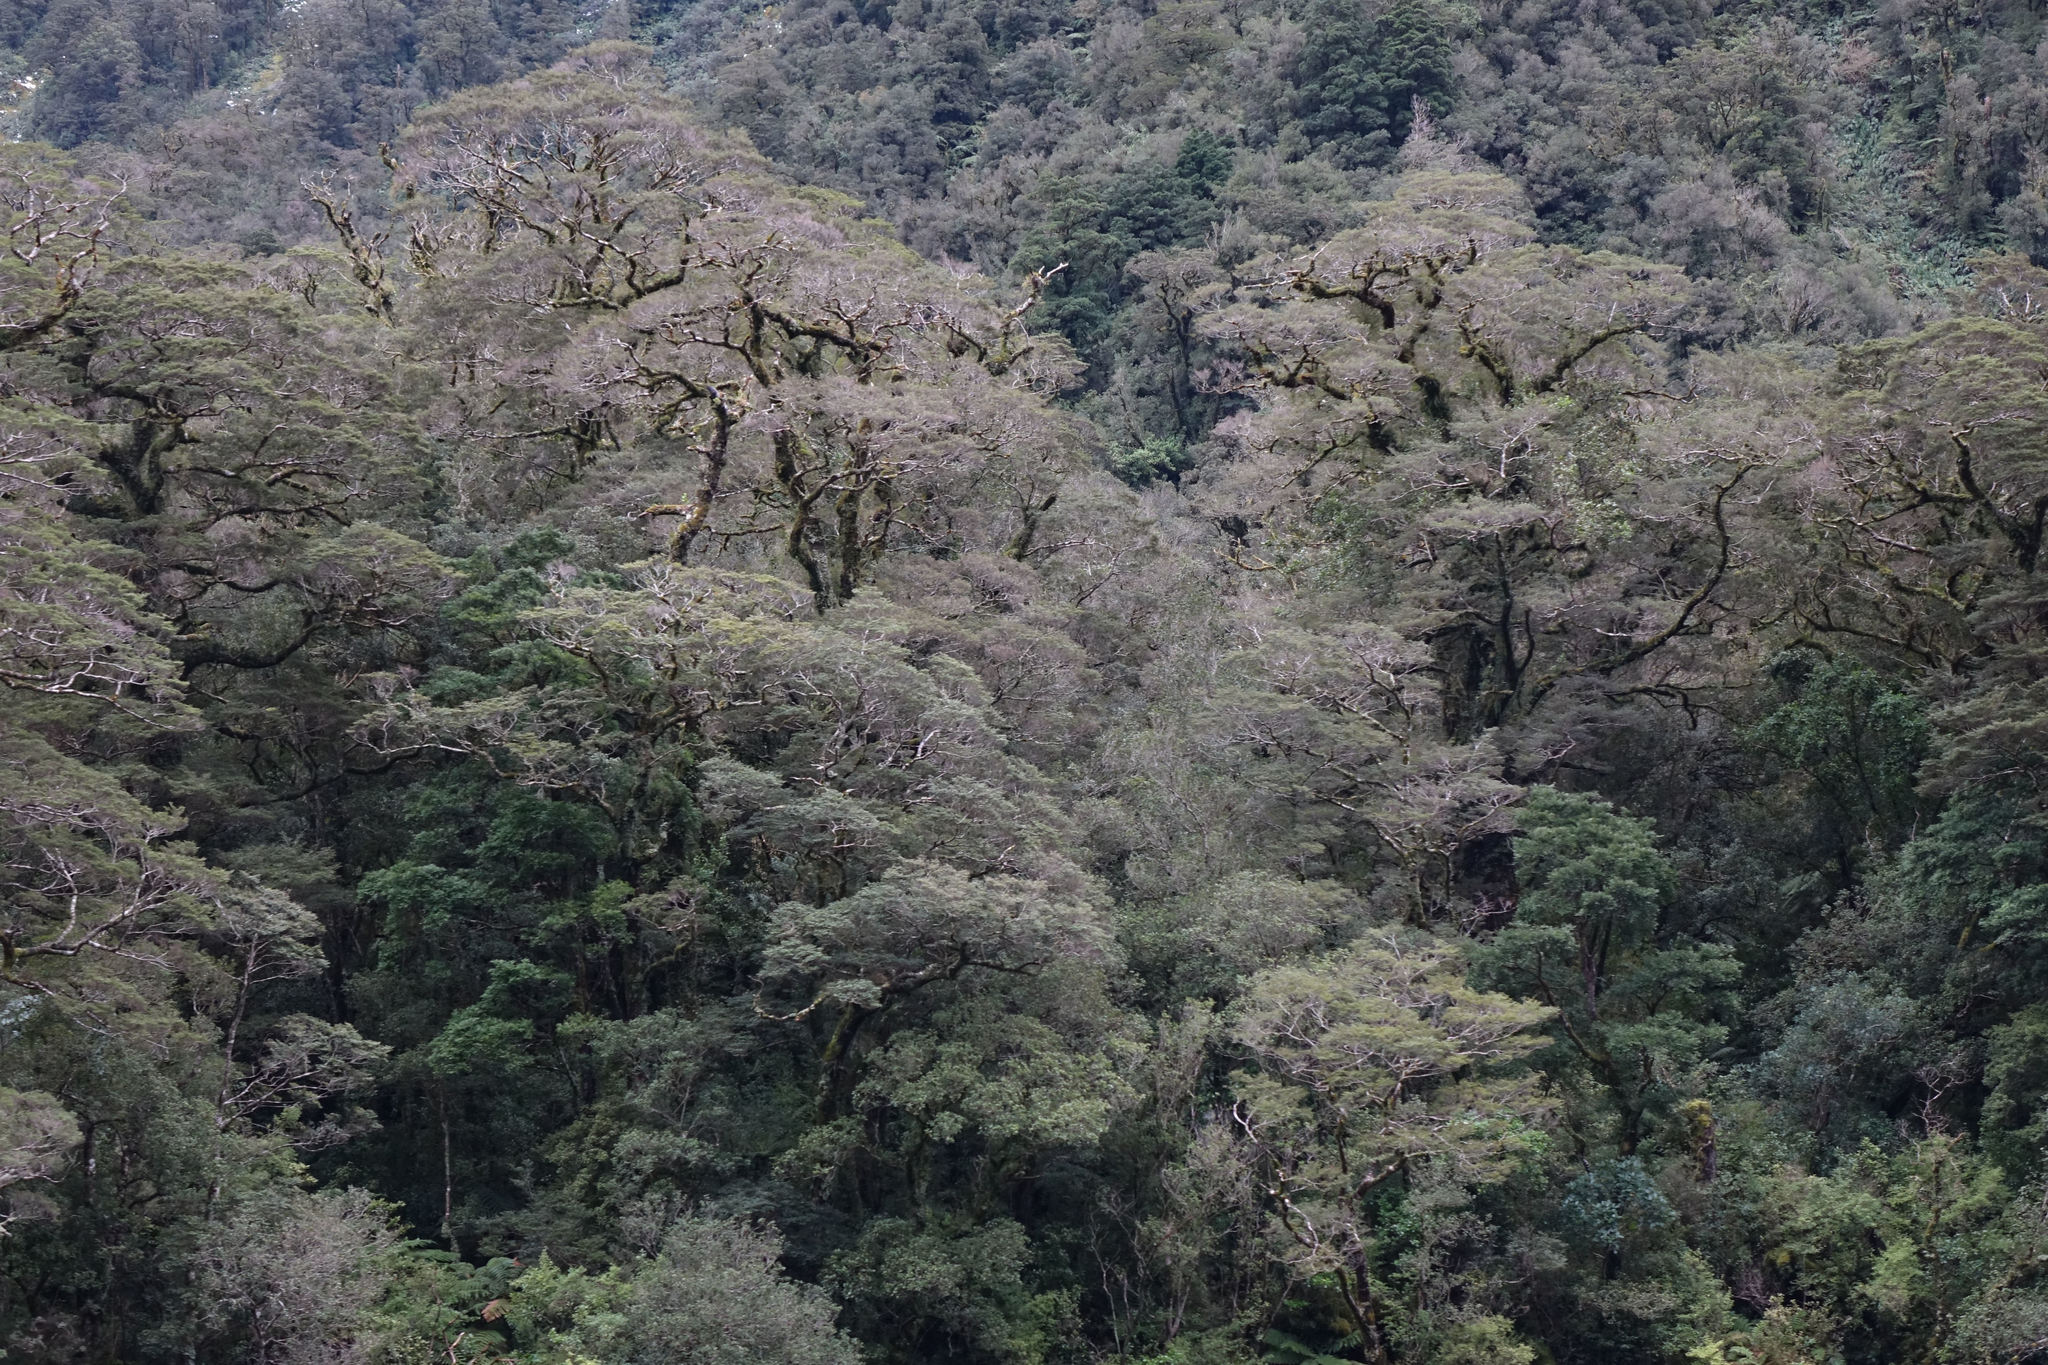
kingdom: Plantae
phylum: Tracheophyta
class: Magnoliopsida
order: Fagales
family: Nothofagaceae
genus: Nothofagus
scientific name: Nothofagus menziesii
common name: Silver beech
